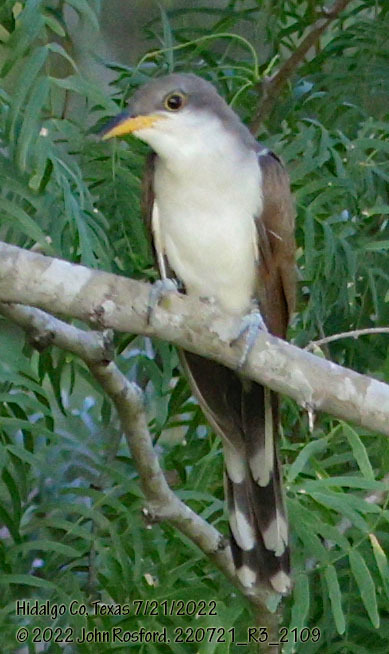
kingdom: Animalia
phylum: Chordata
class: Aves
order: Cuculiformes
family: Cuculidae
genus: Coccyzus
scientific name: Coccyzus americanus
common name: Yellow-billed cuckoo
